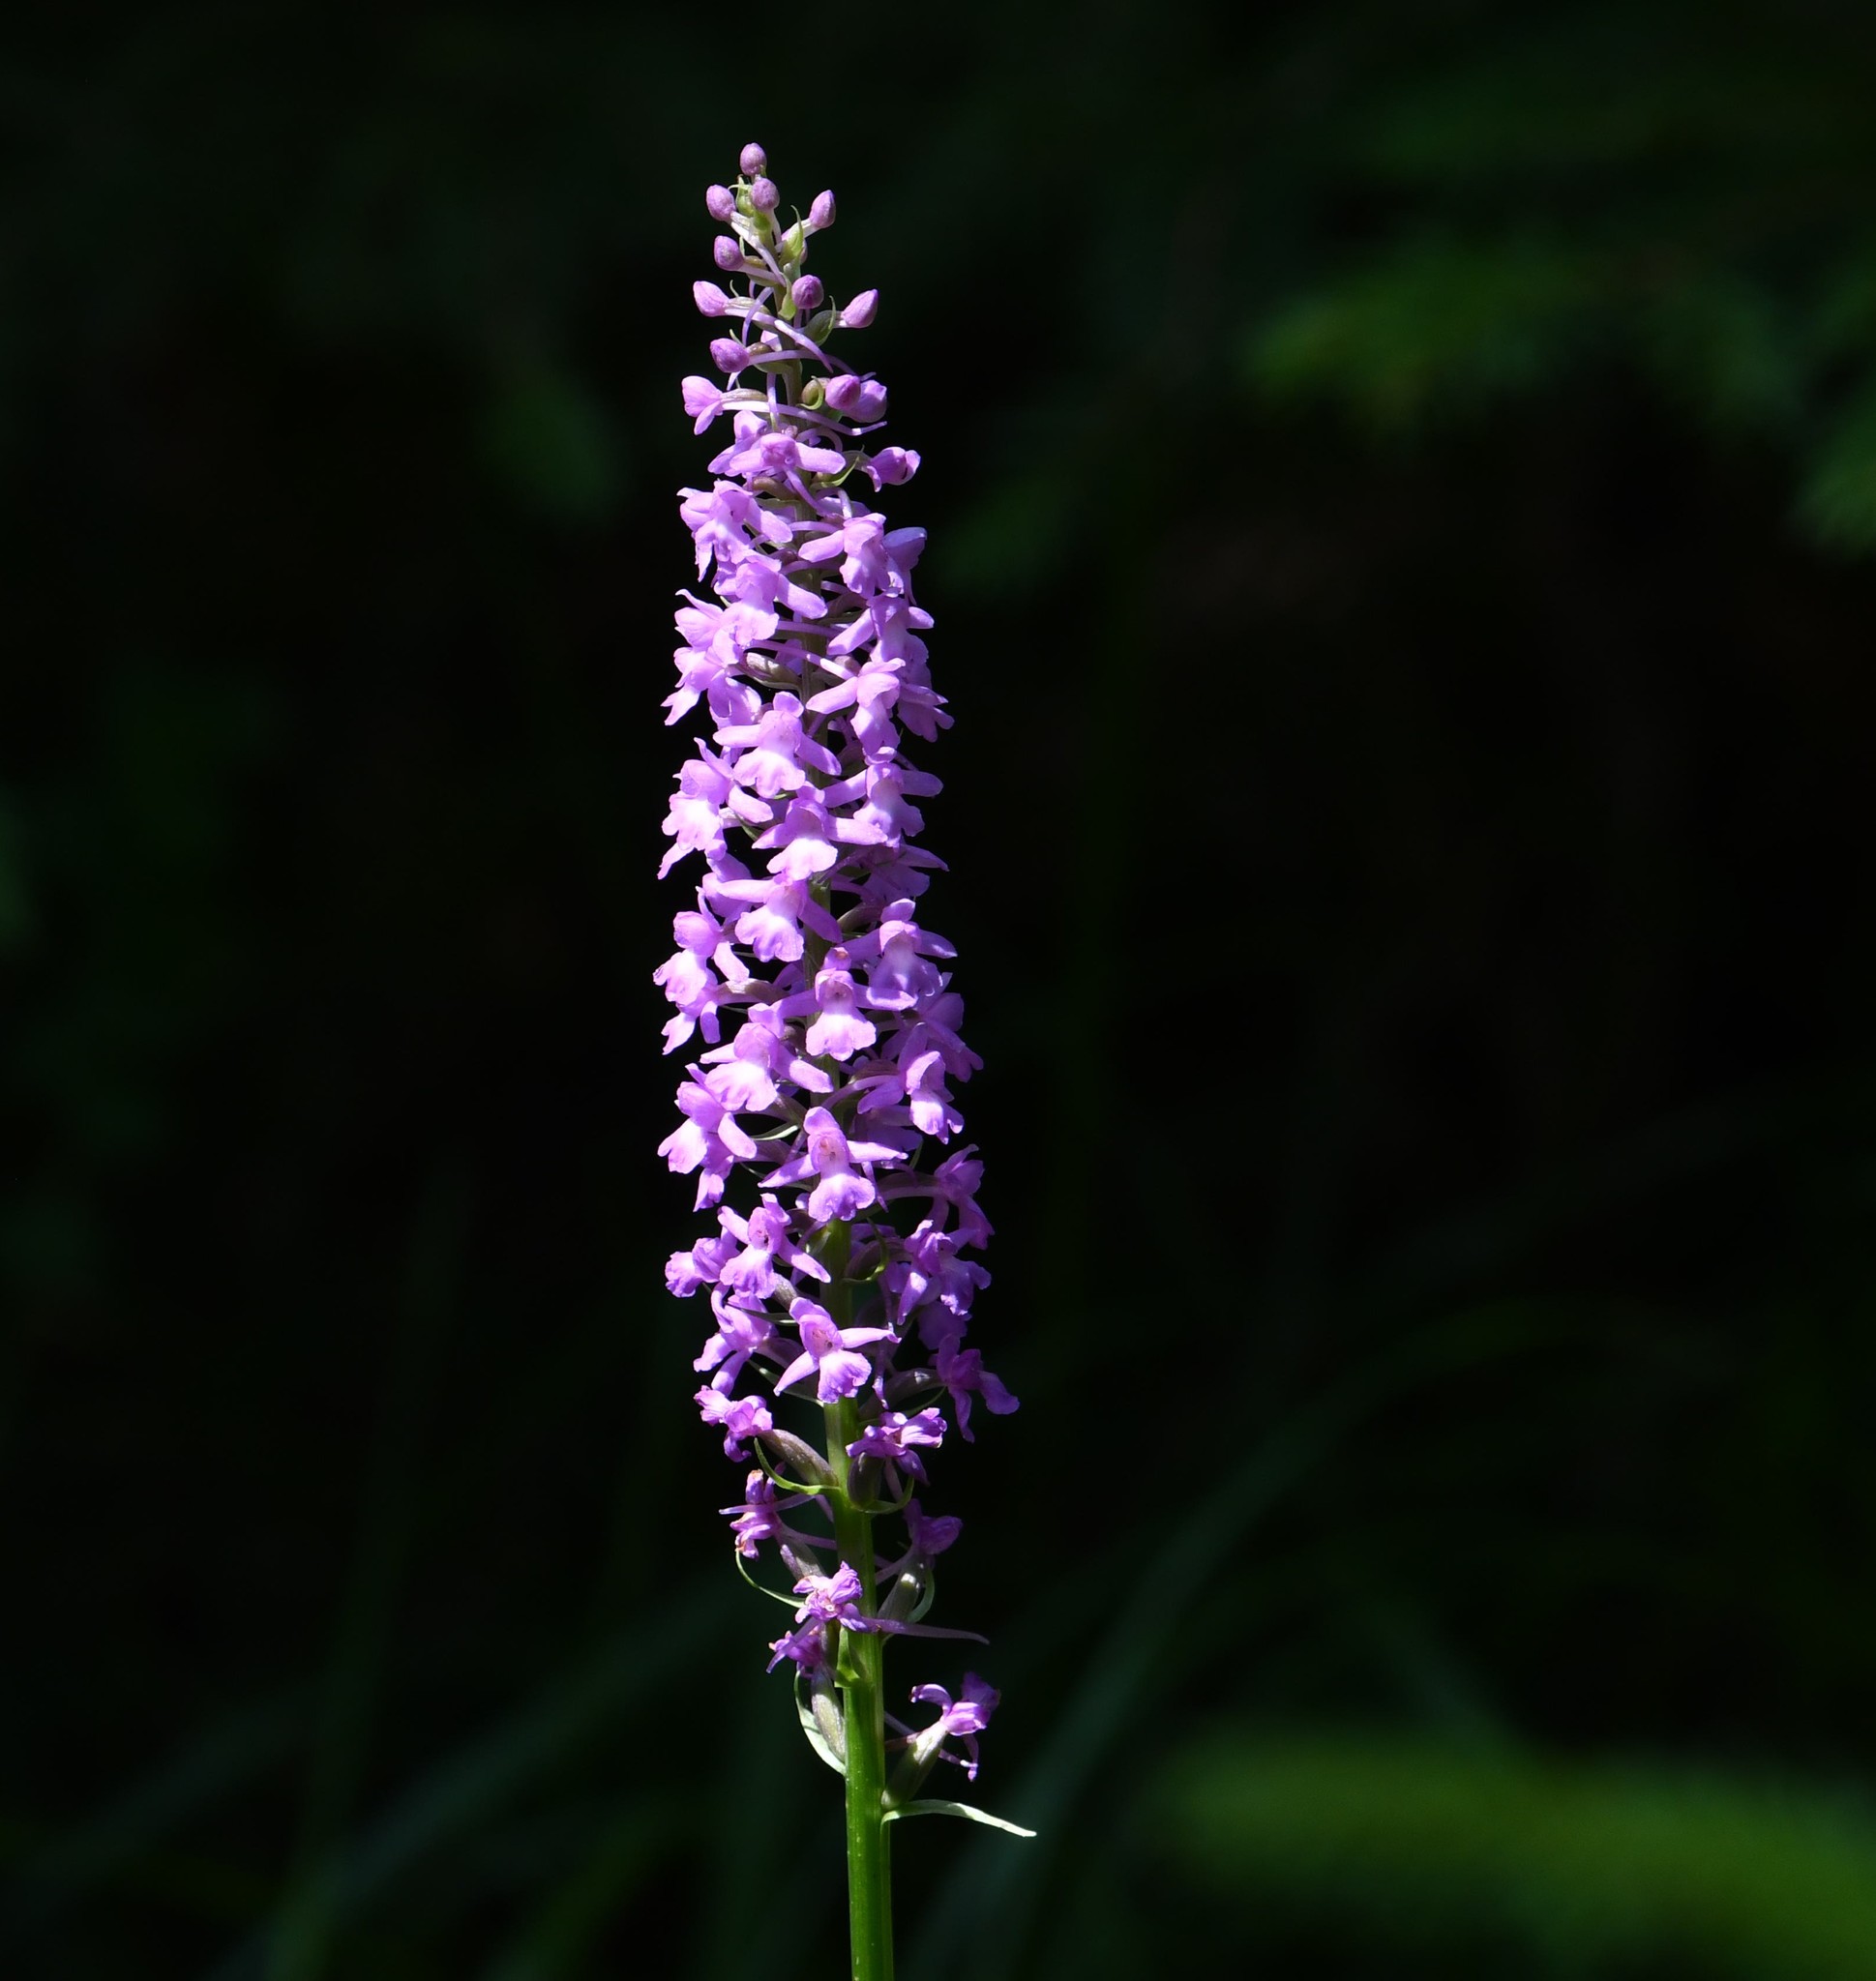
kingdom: Plantae
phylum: Tracheophyta
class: Liliopsida
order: Asparagales
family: Orchidaceae
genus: Gymnadenia
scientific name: Gymnadenia conopsea
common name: Fragrant orchid
